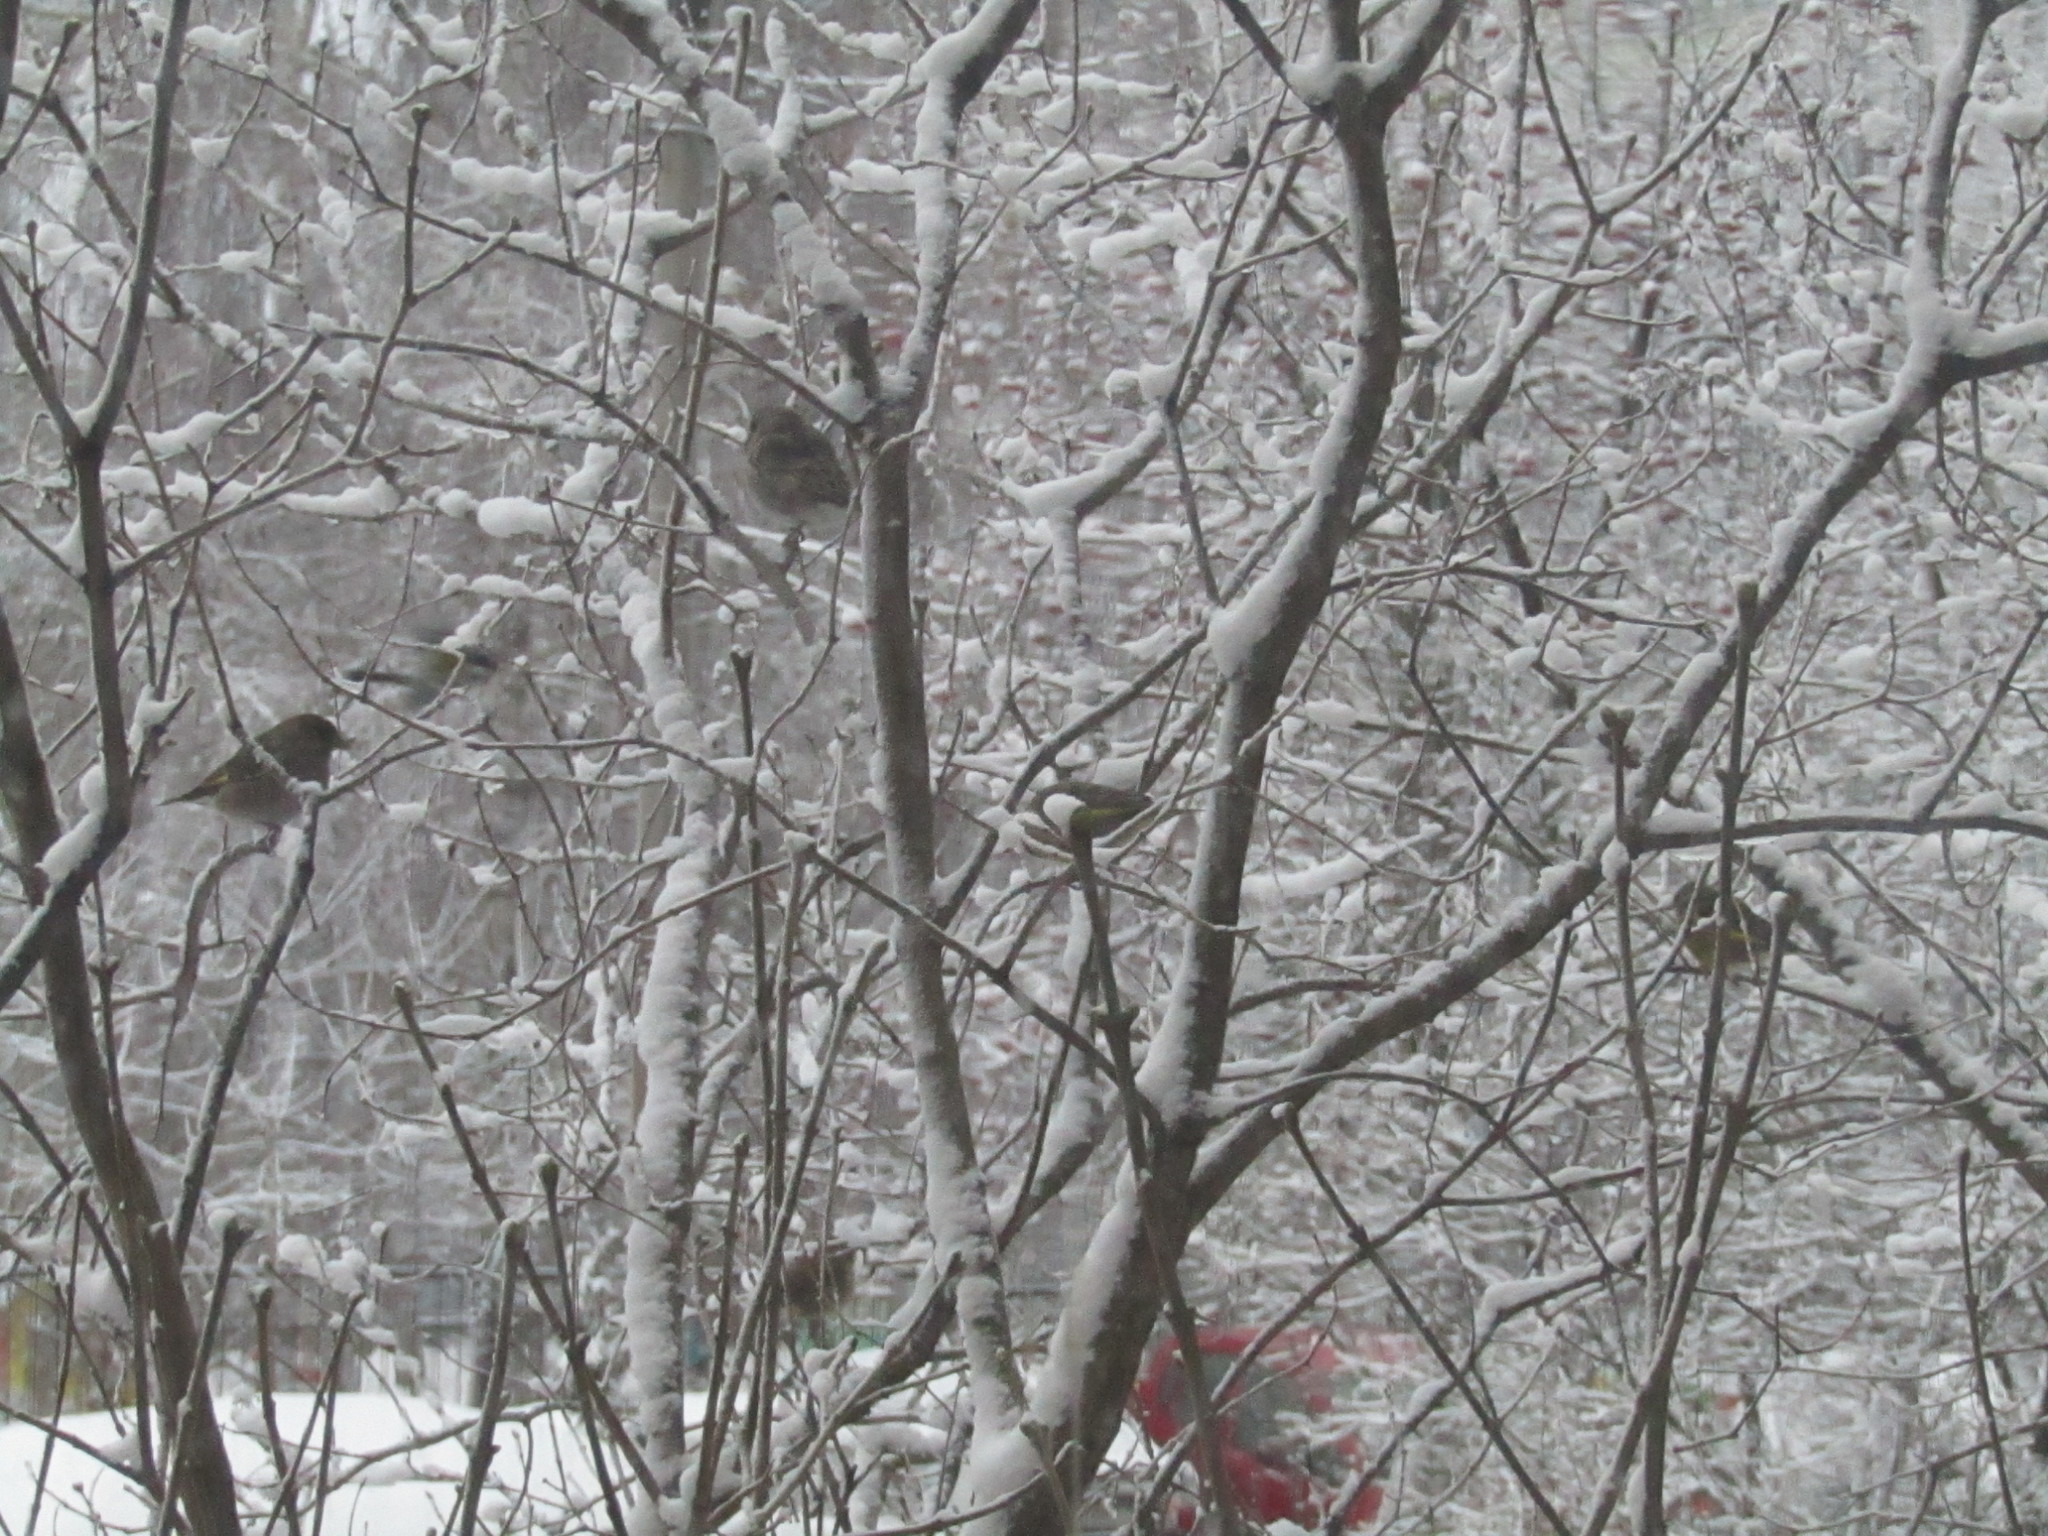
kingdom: Plantae
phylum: Tracheophyta
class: Liliopsida
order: Poales
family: Poaceae
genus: Chloris
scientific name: Chloris chloris
